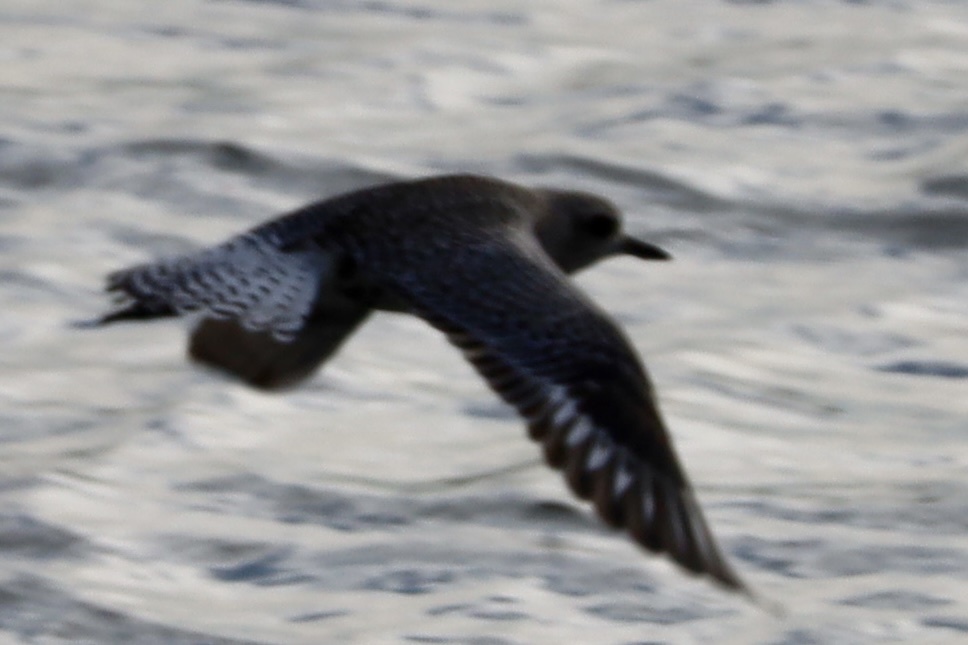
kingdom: Animalia
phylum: Chordata
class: Aves
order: Charadriiformes
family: Charadriidae
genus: Pluvialis
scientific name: Pluvialis squatarola
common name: Grey plover
